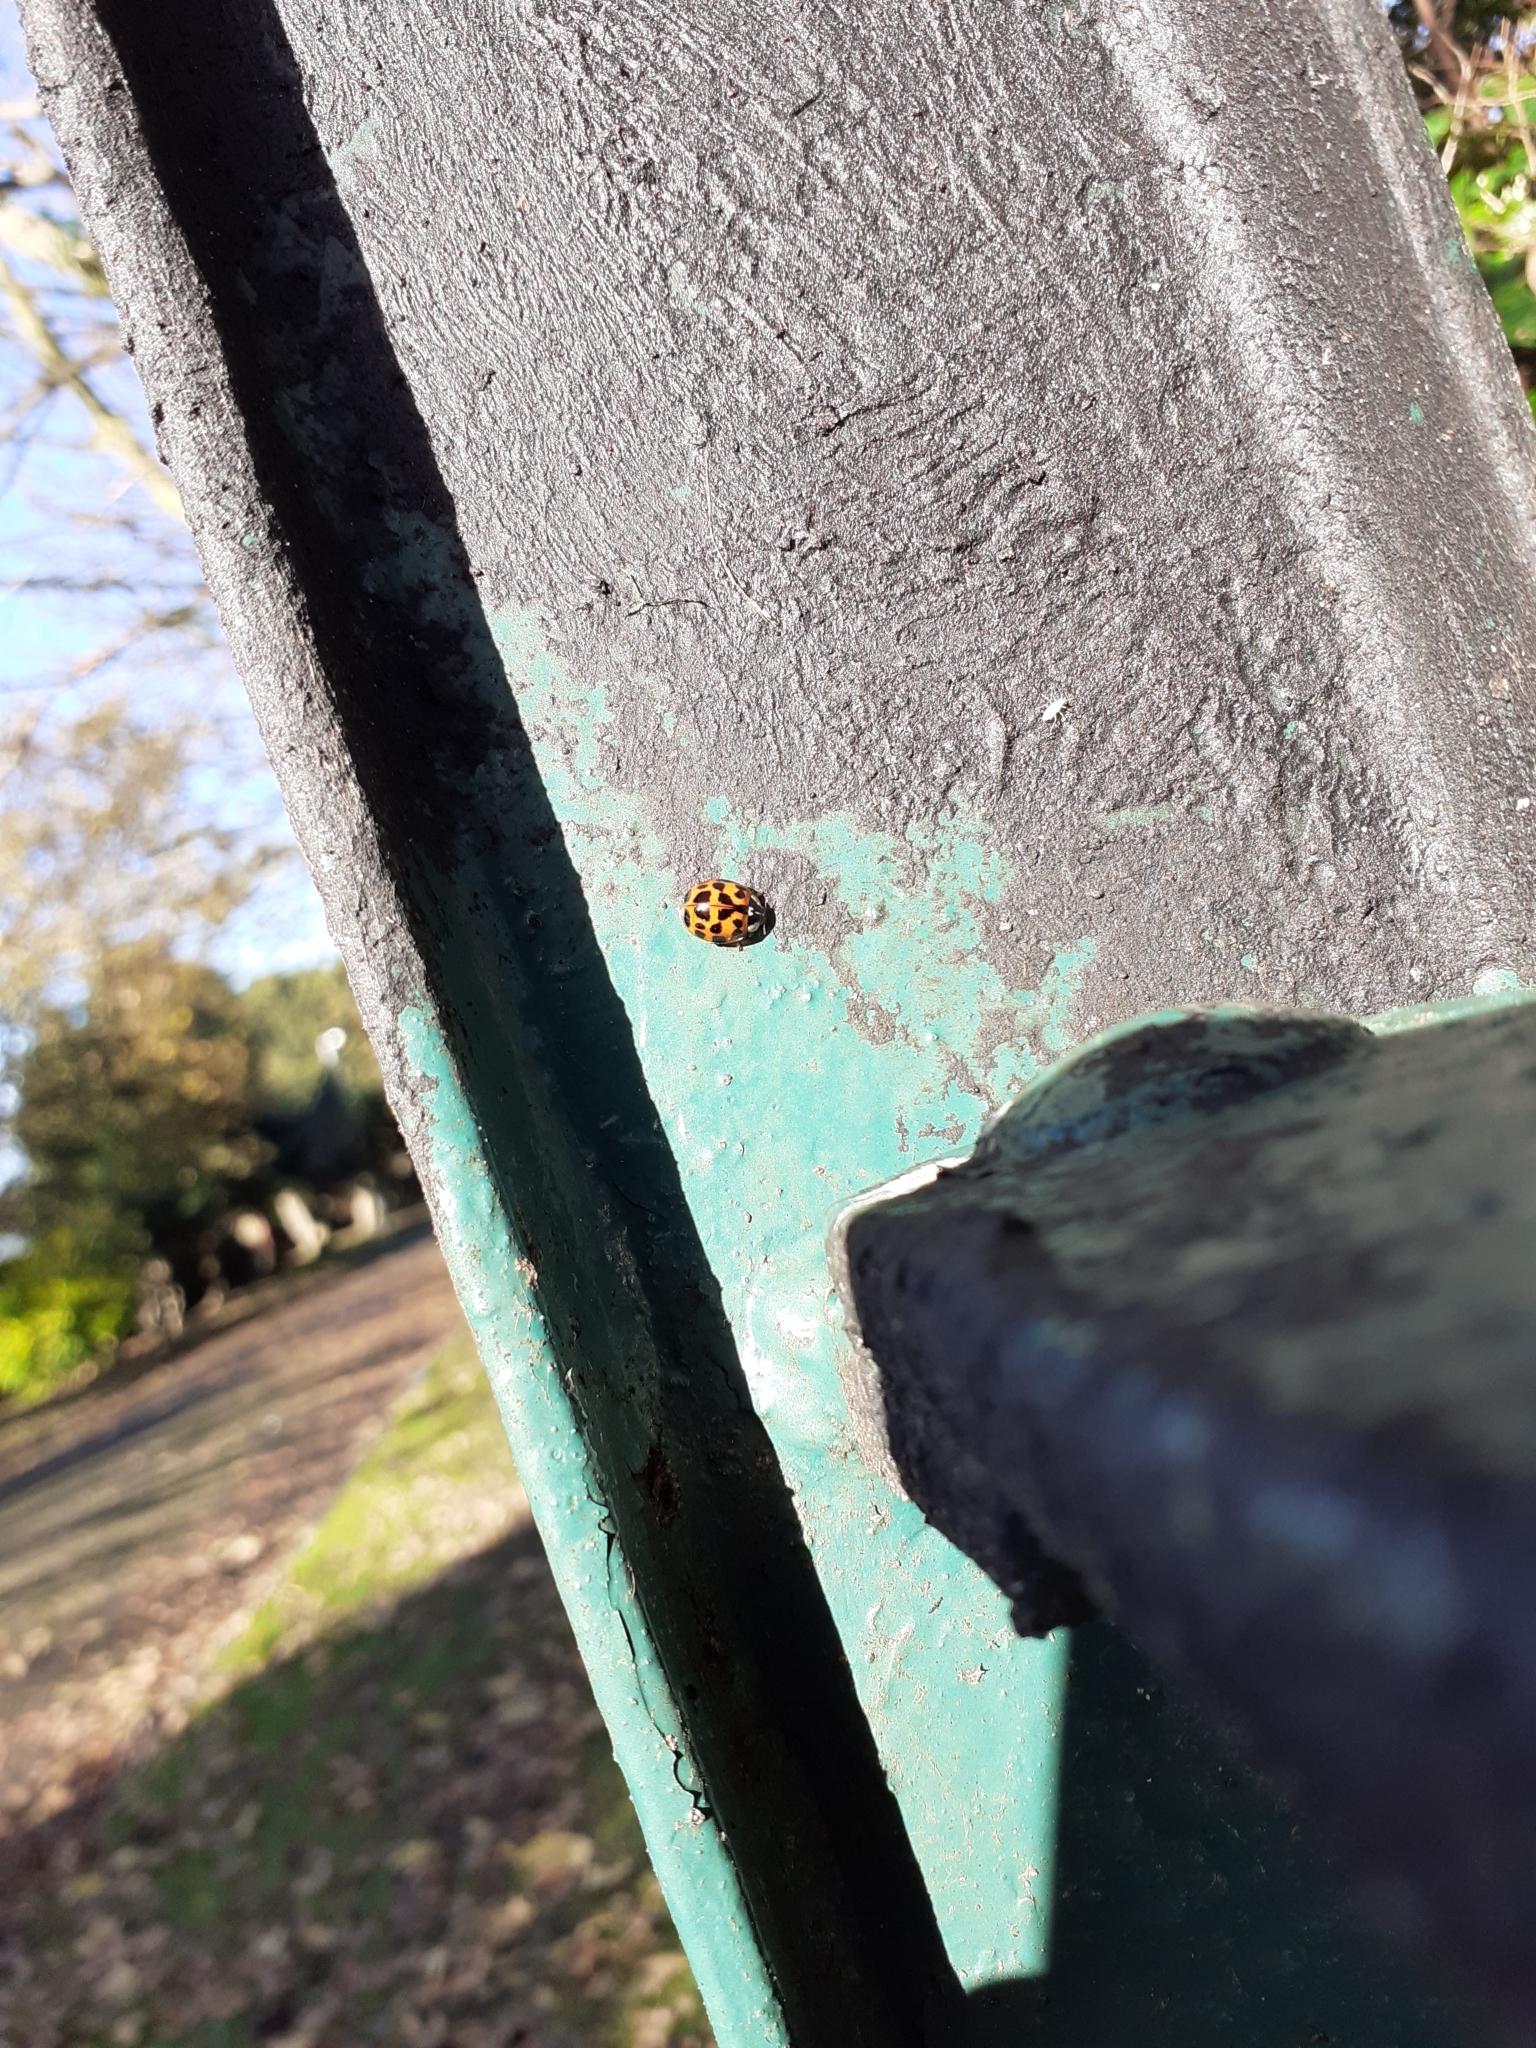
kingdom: Animalia
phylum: Arthropoda
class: Insecta
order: Coleoptera
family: Coccinellidae
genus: Harmonia
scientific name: Harmonia axyridis
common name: Harlequin ladybird
